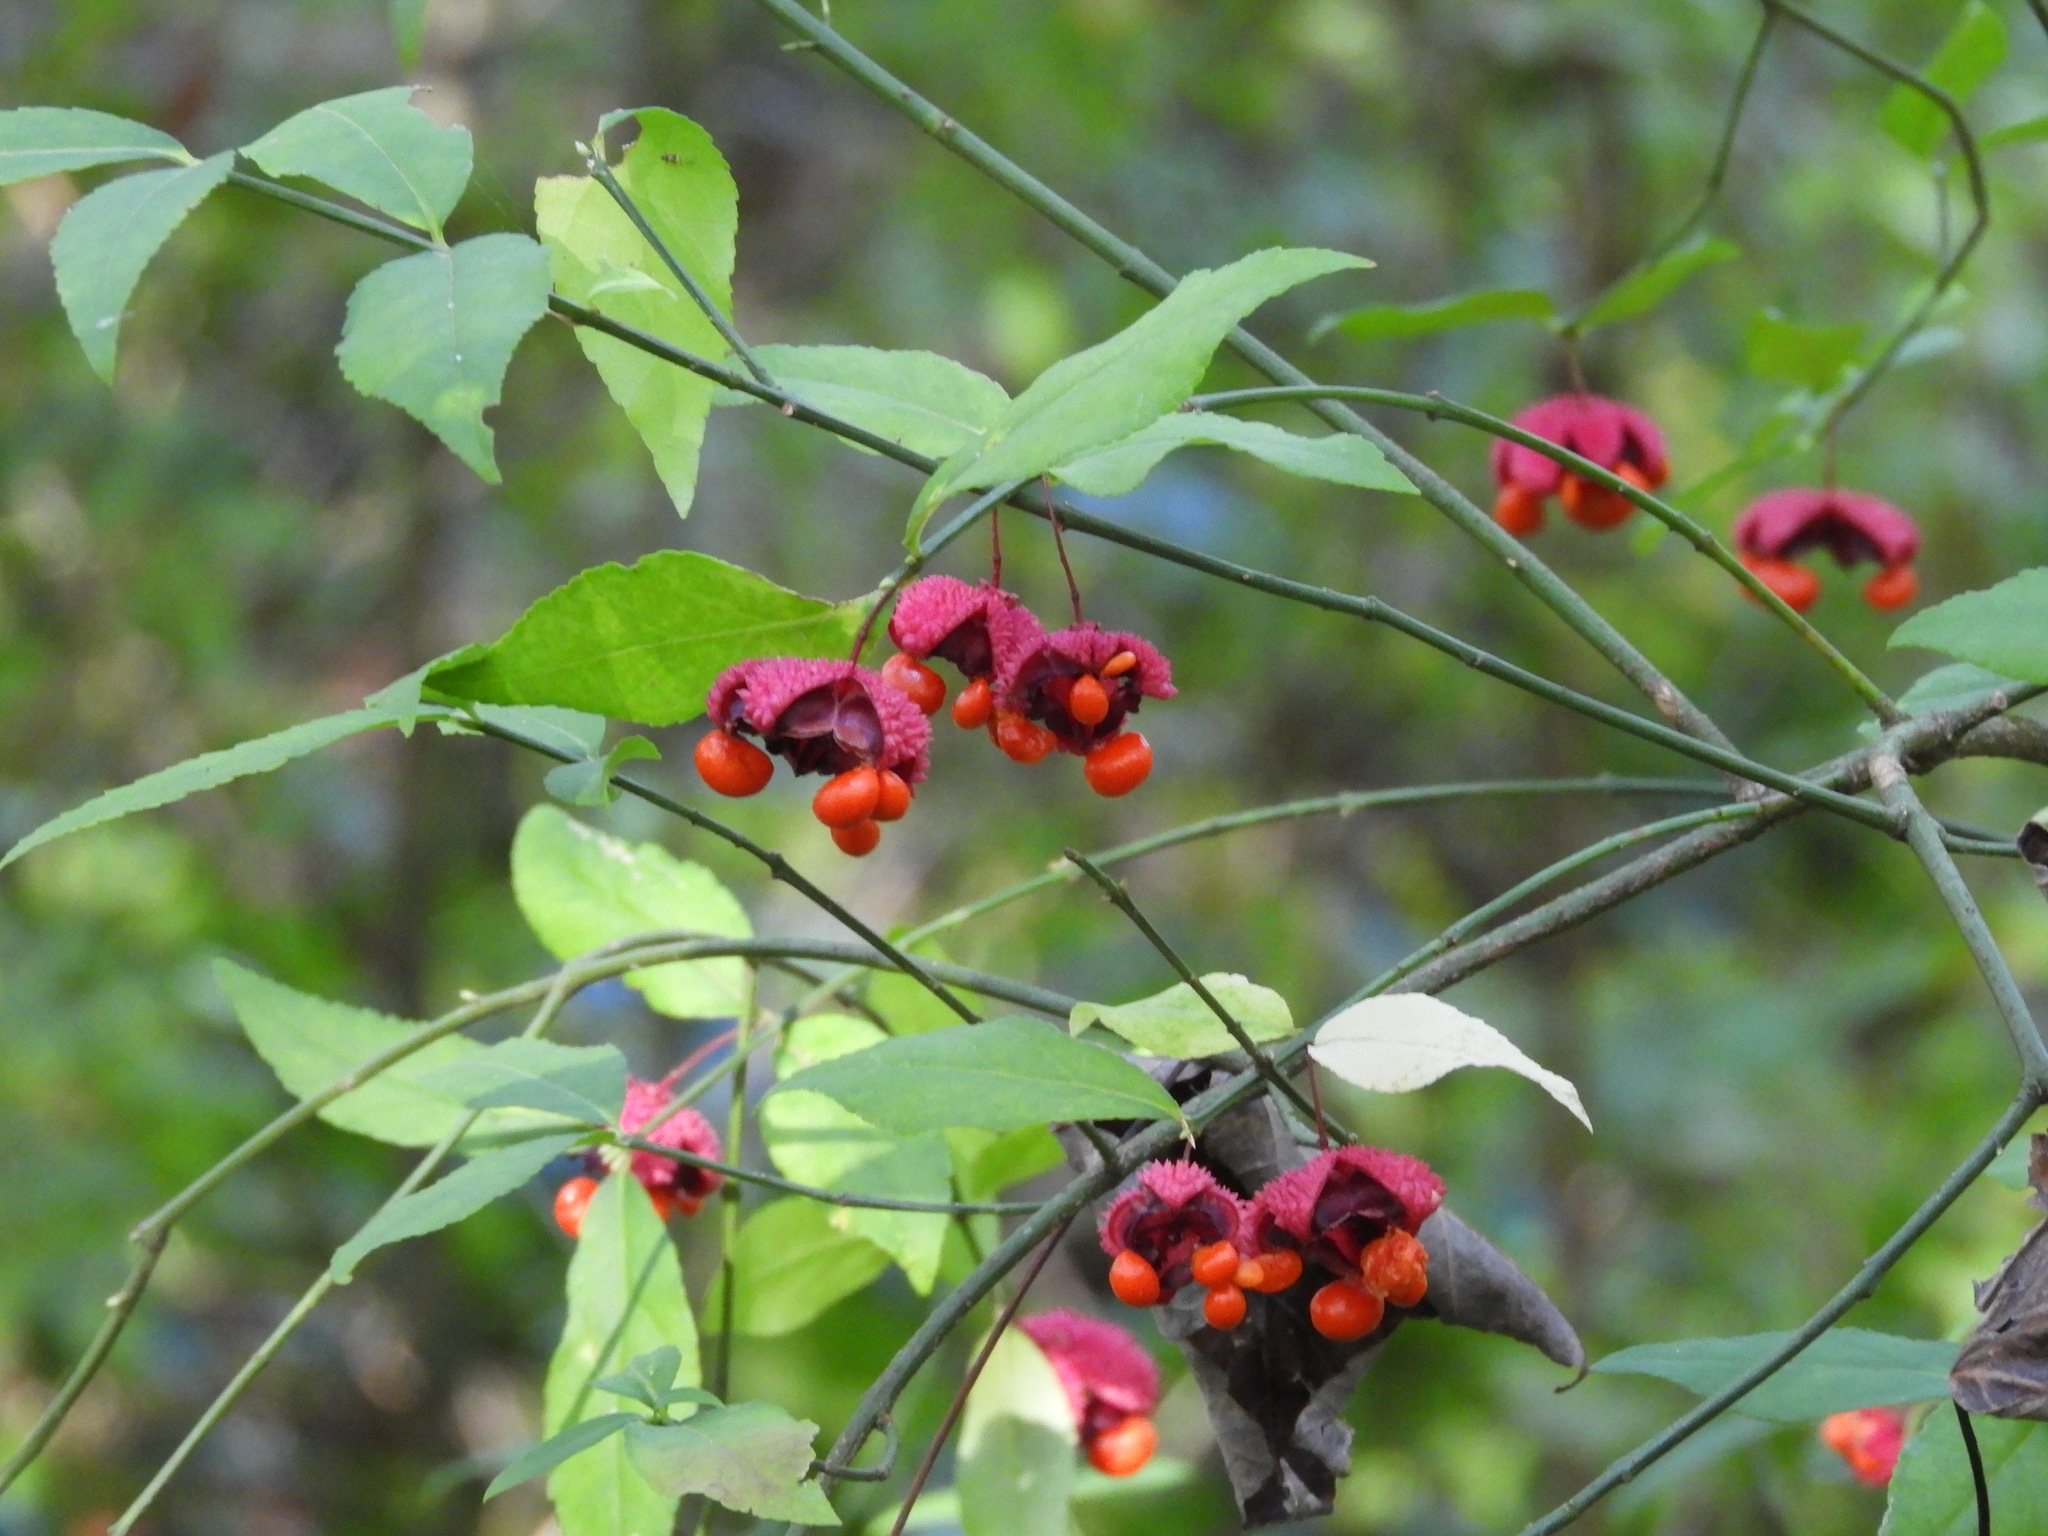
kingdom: Plantae
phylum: Tracheophyta
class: Magnoliopsida
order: Celastrales
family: Celastraceae
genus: Euonymus
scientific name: Euonymus americanus
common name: Bursting-heart
